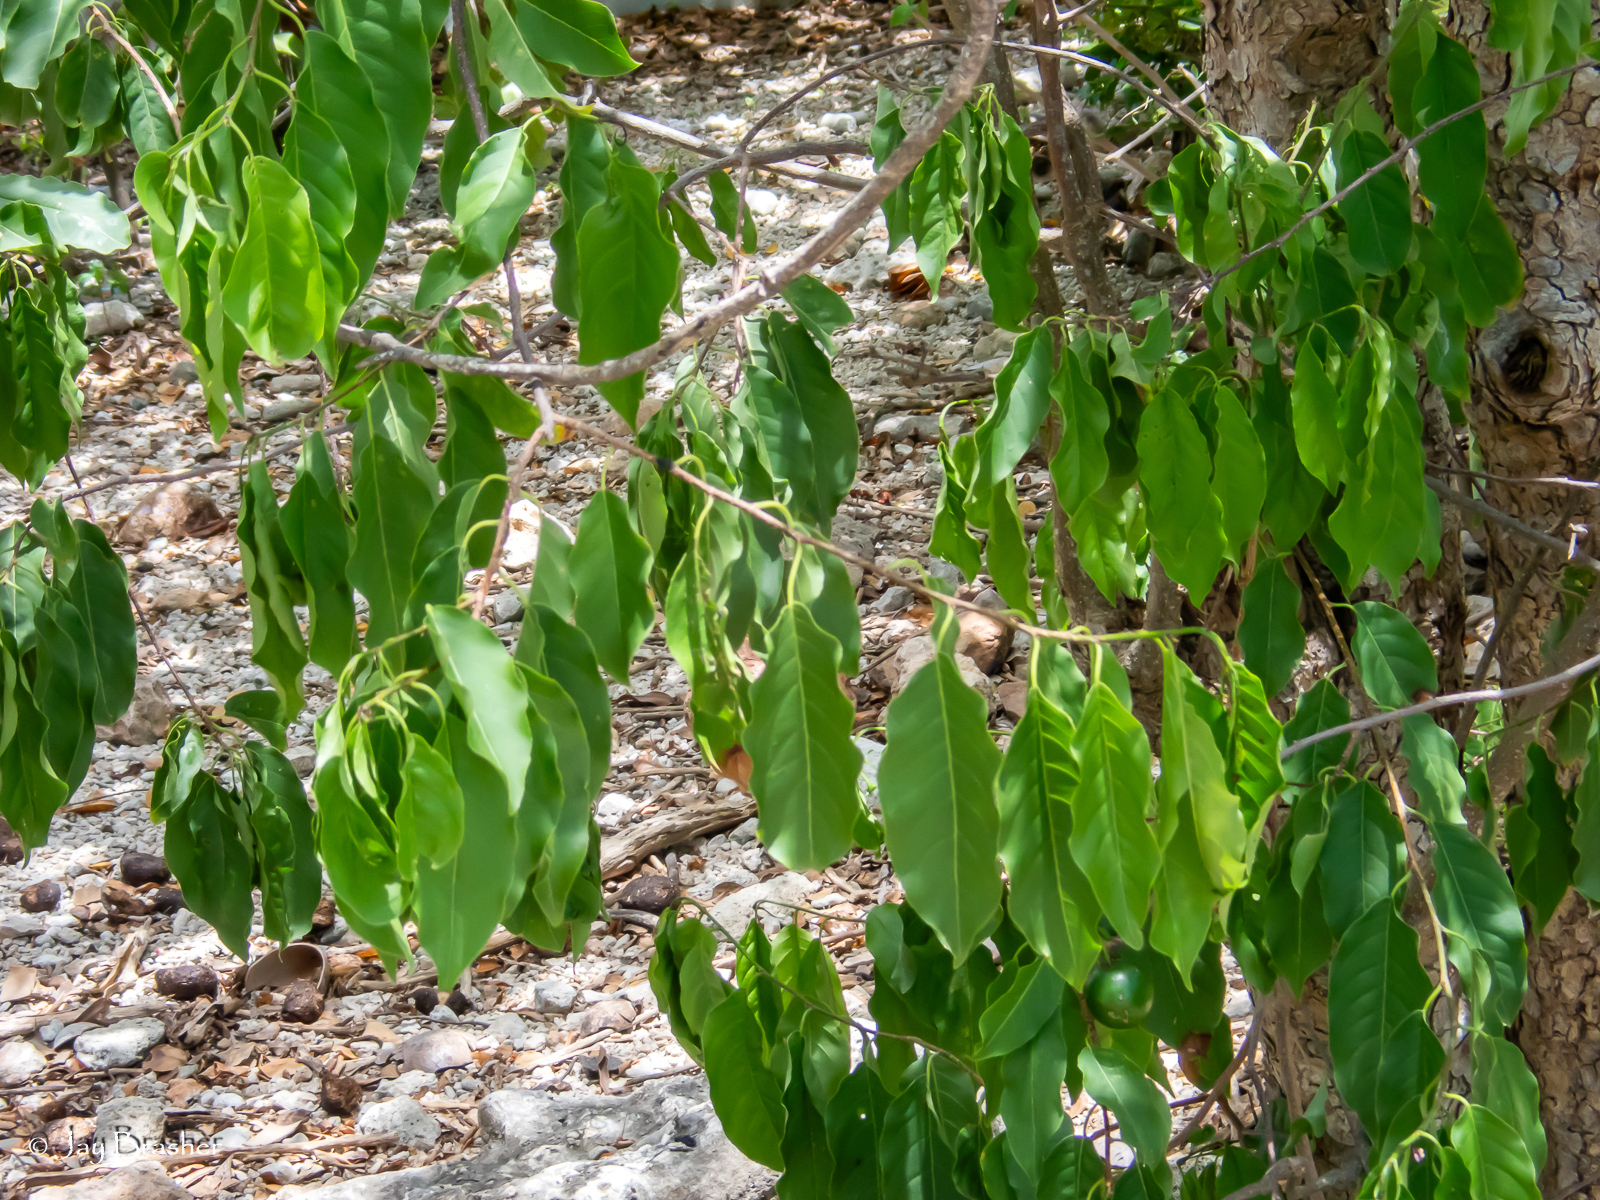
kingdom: Plantae
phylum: Tracheophyta
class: Magnoliopsida
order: Malpighiales
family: Salicaceae
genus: Casearia
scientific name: Casearia tremula
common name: Jumbie guava
